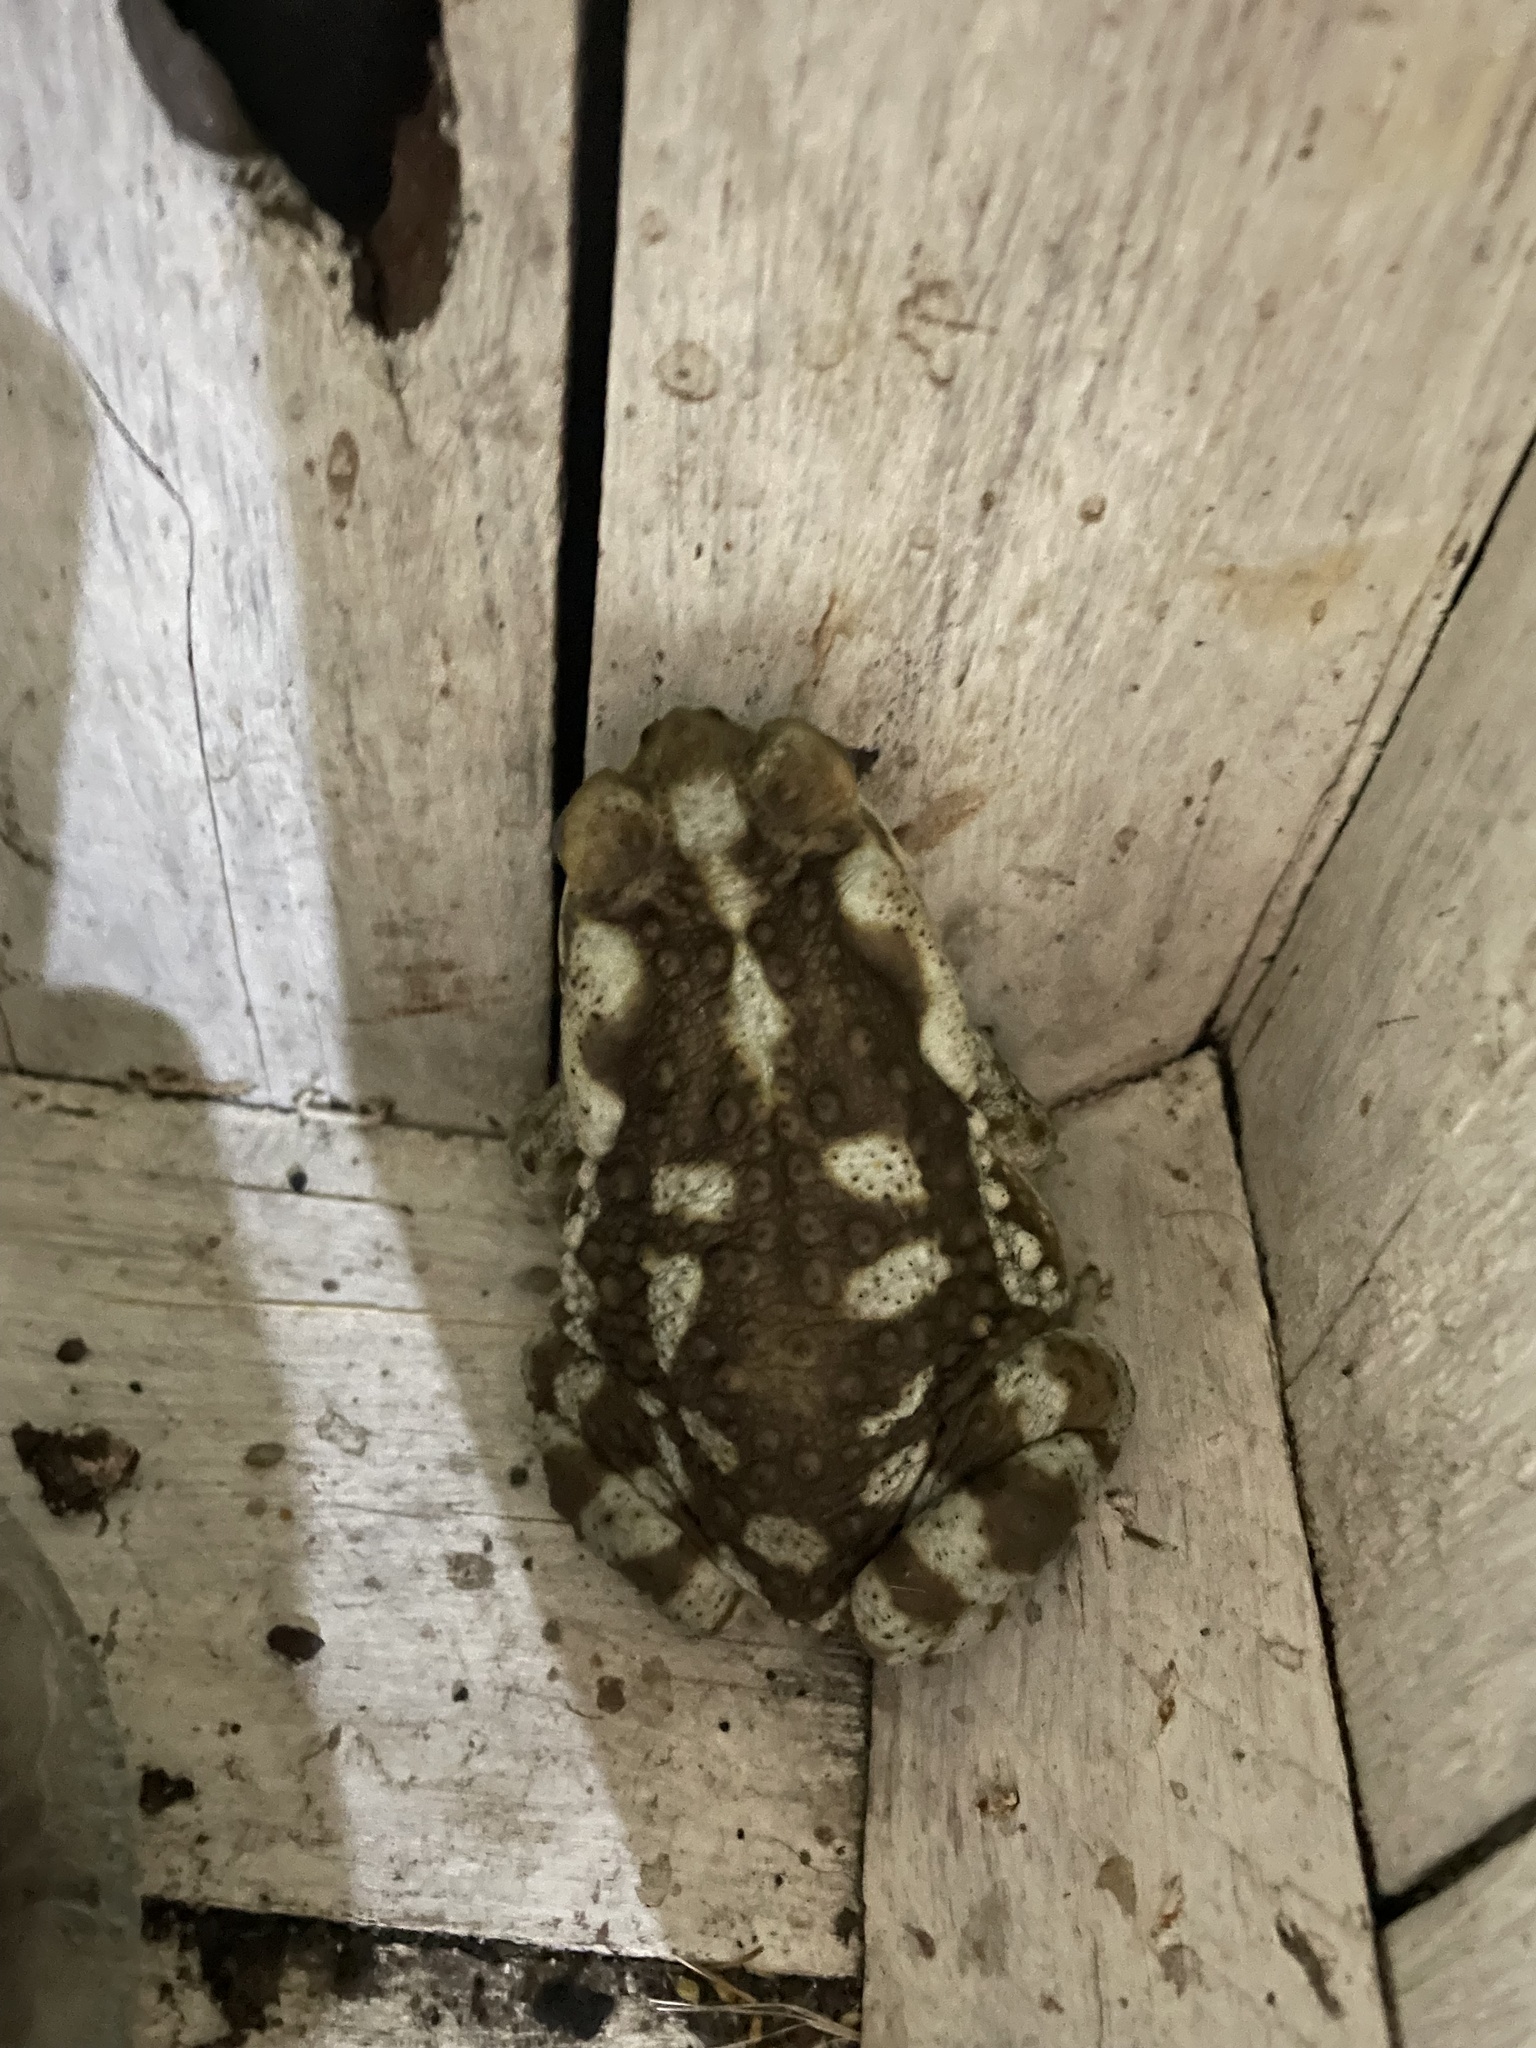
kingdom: Animalia
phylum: Chordata
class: Amphibia
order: Anura
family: Bufonidae
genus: Rhinella
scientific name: Rhinella arenarum
